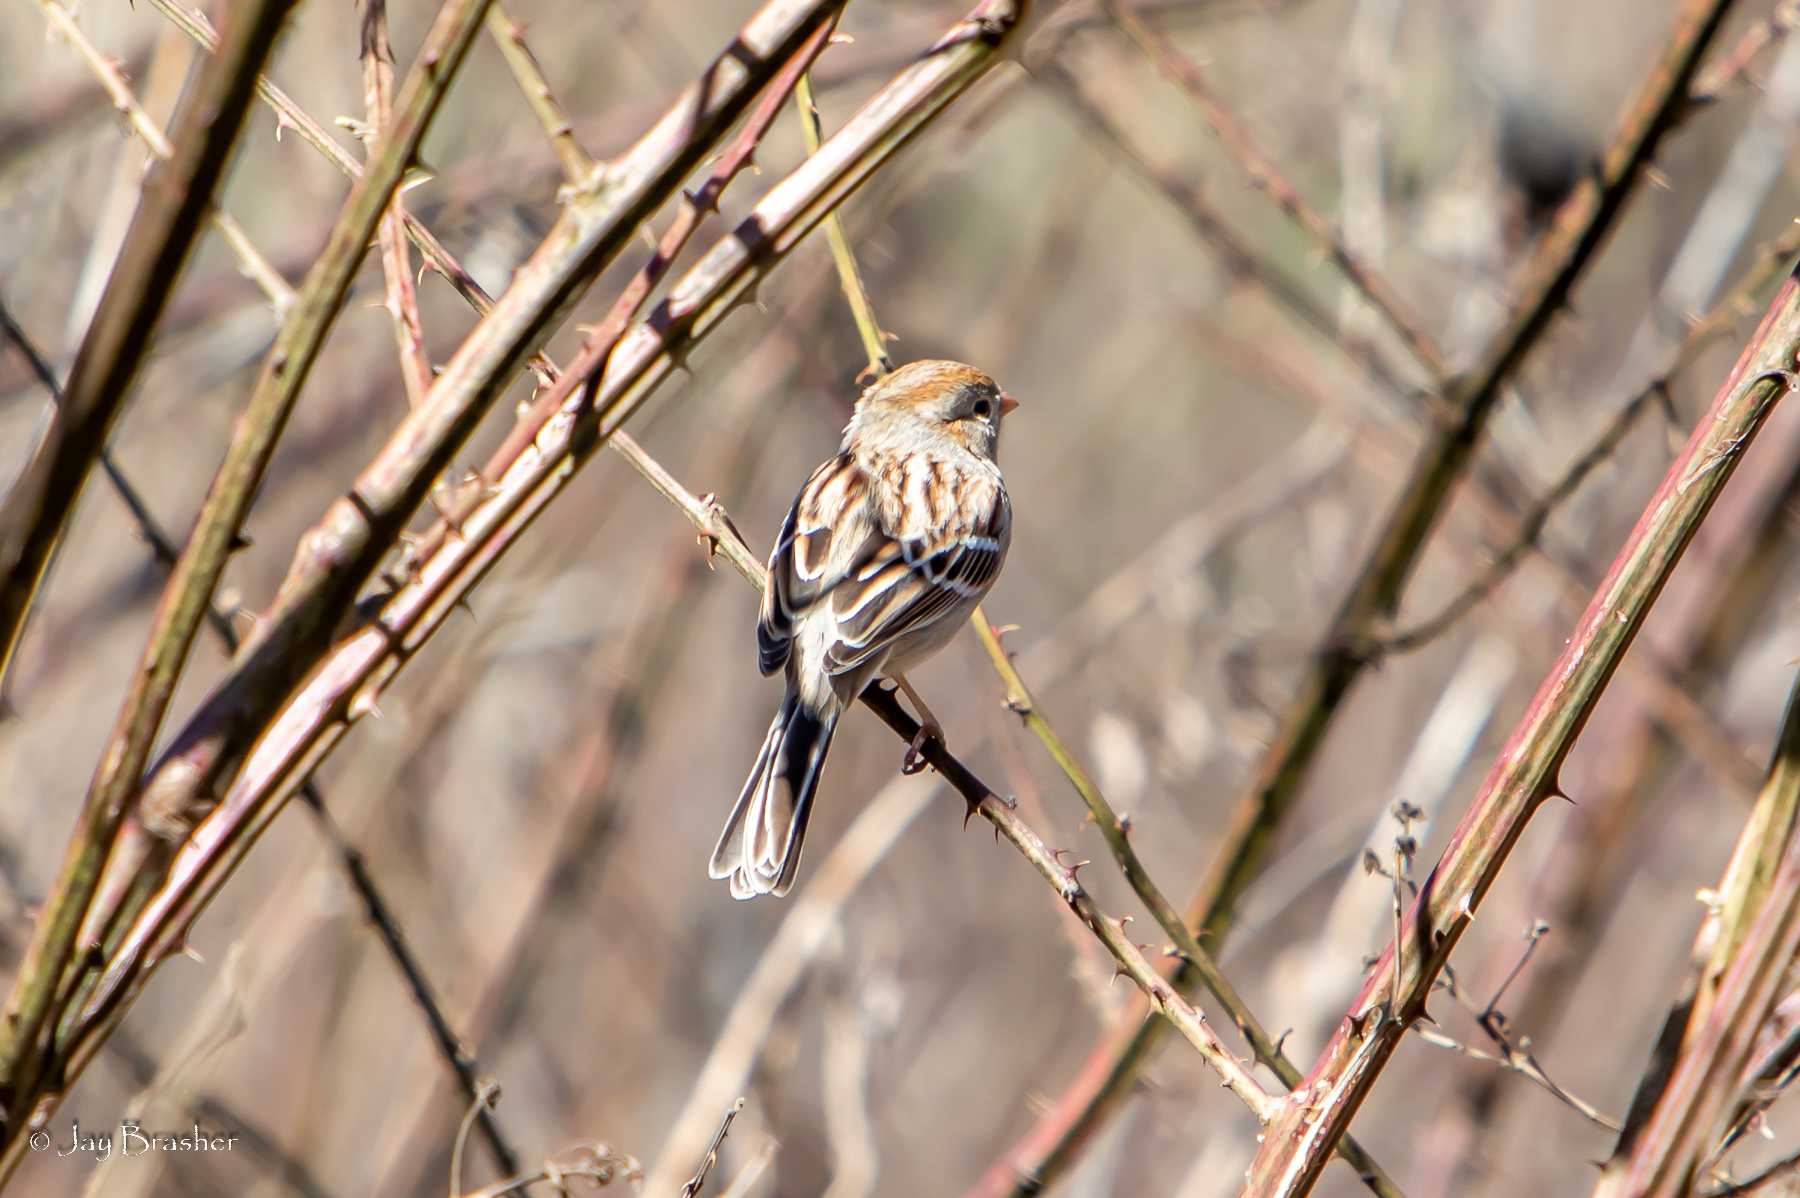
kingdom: Animalia
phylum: Chordata
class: Aves
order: Passeriformes
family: Passerellidae
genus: Spizella
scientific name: Spizella pusilla
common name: Field sparrow
